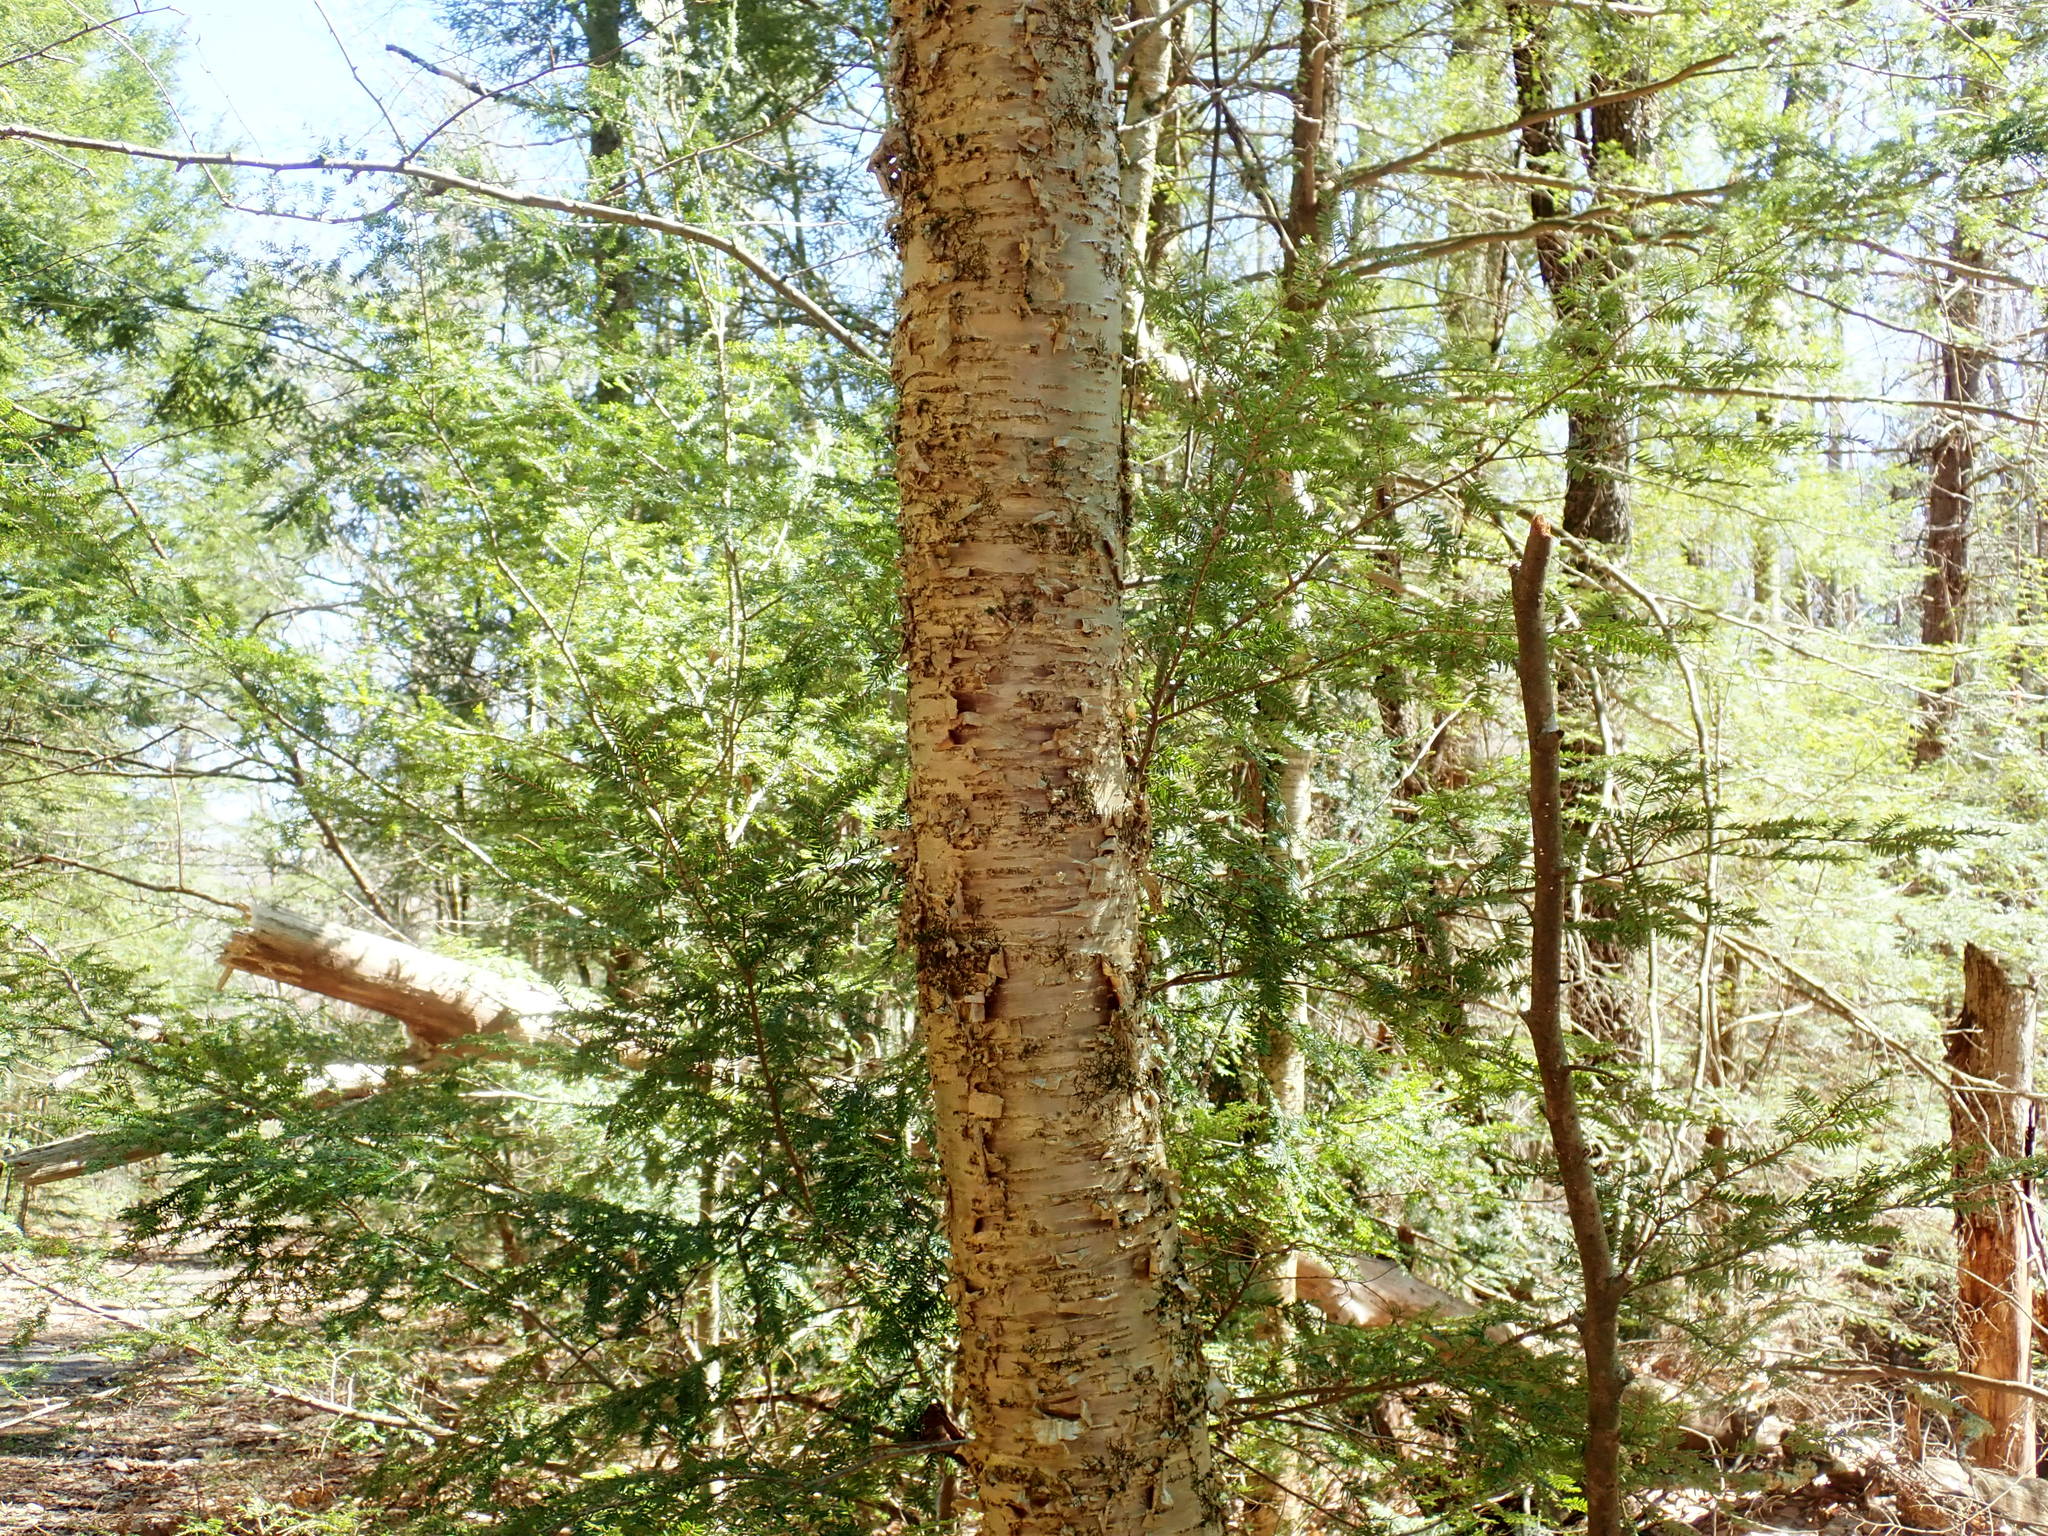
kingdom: Plantae
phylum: Tracheophyta
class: Magnoliopsida
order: Fagales
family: Betulaceae
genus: Betula
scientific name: Betula alleghaniensis
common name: Yellow birch
